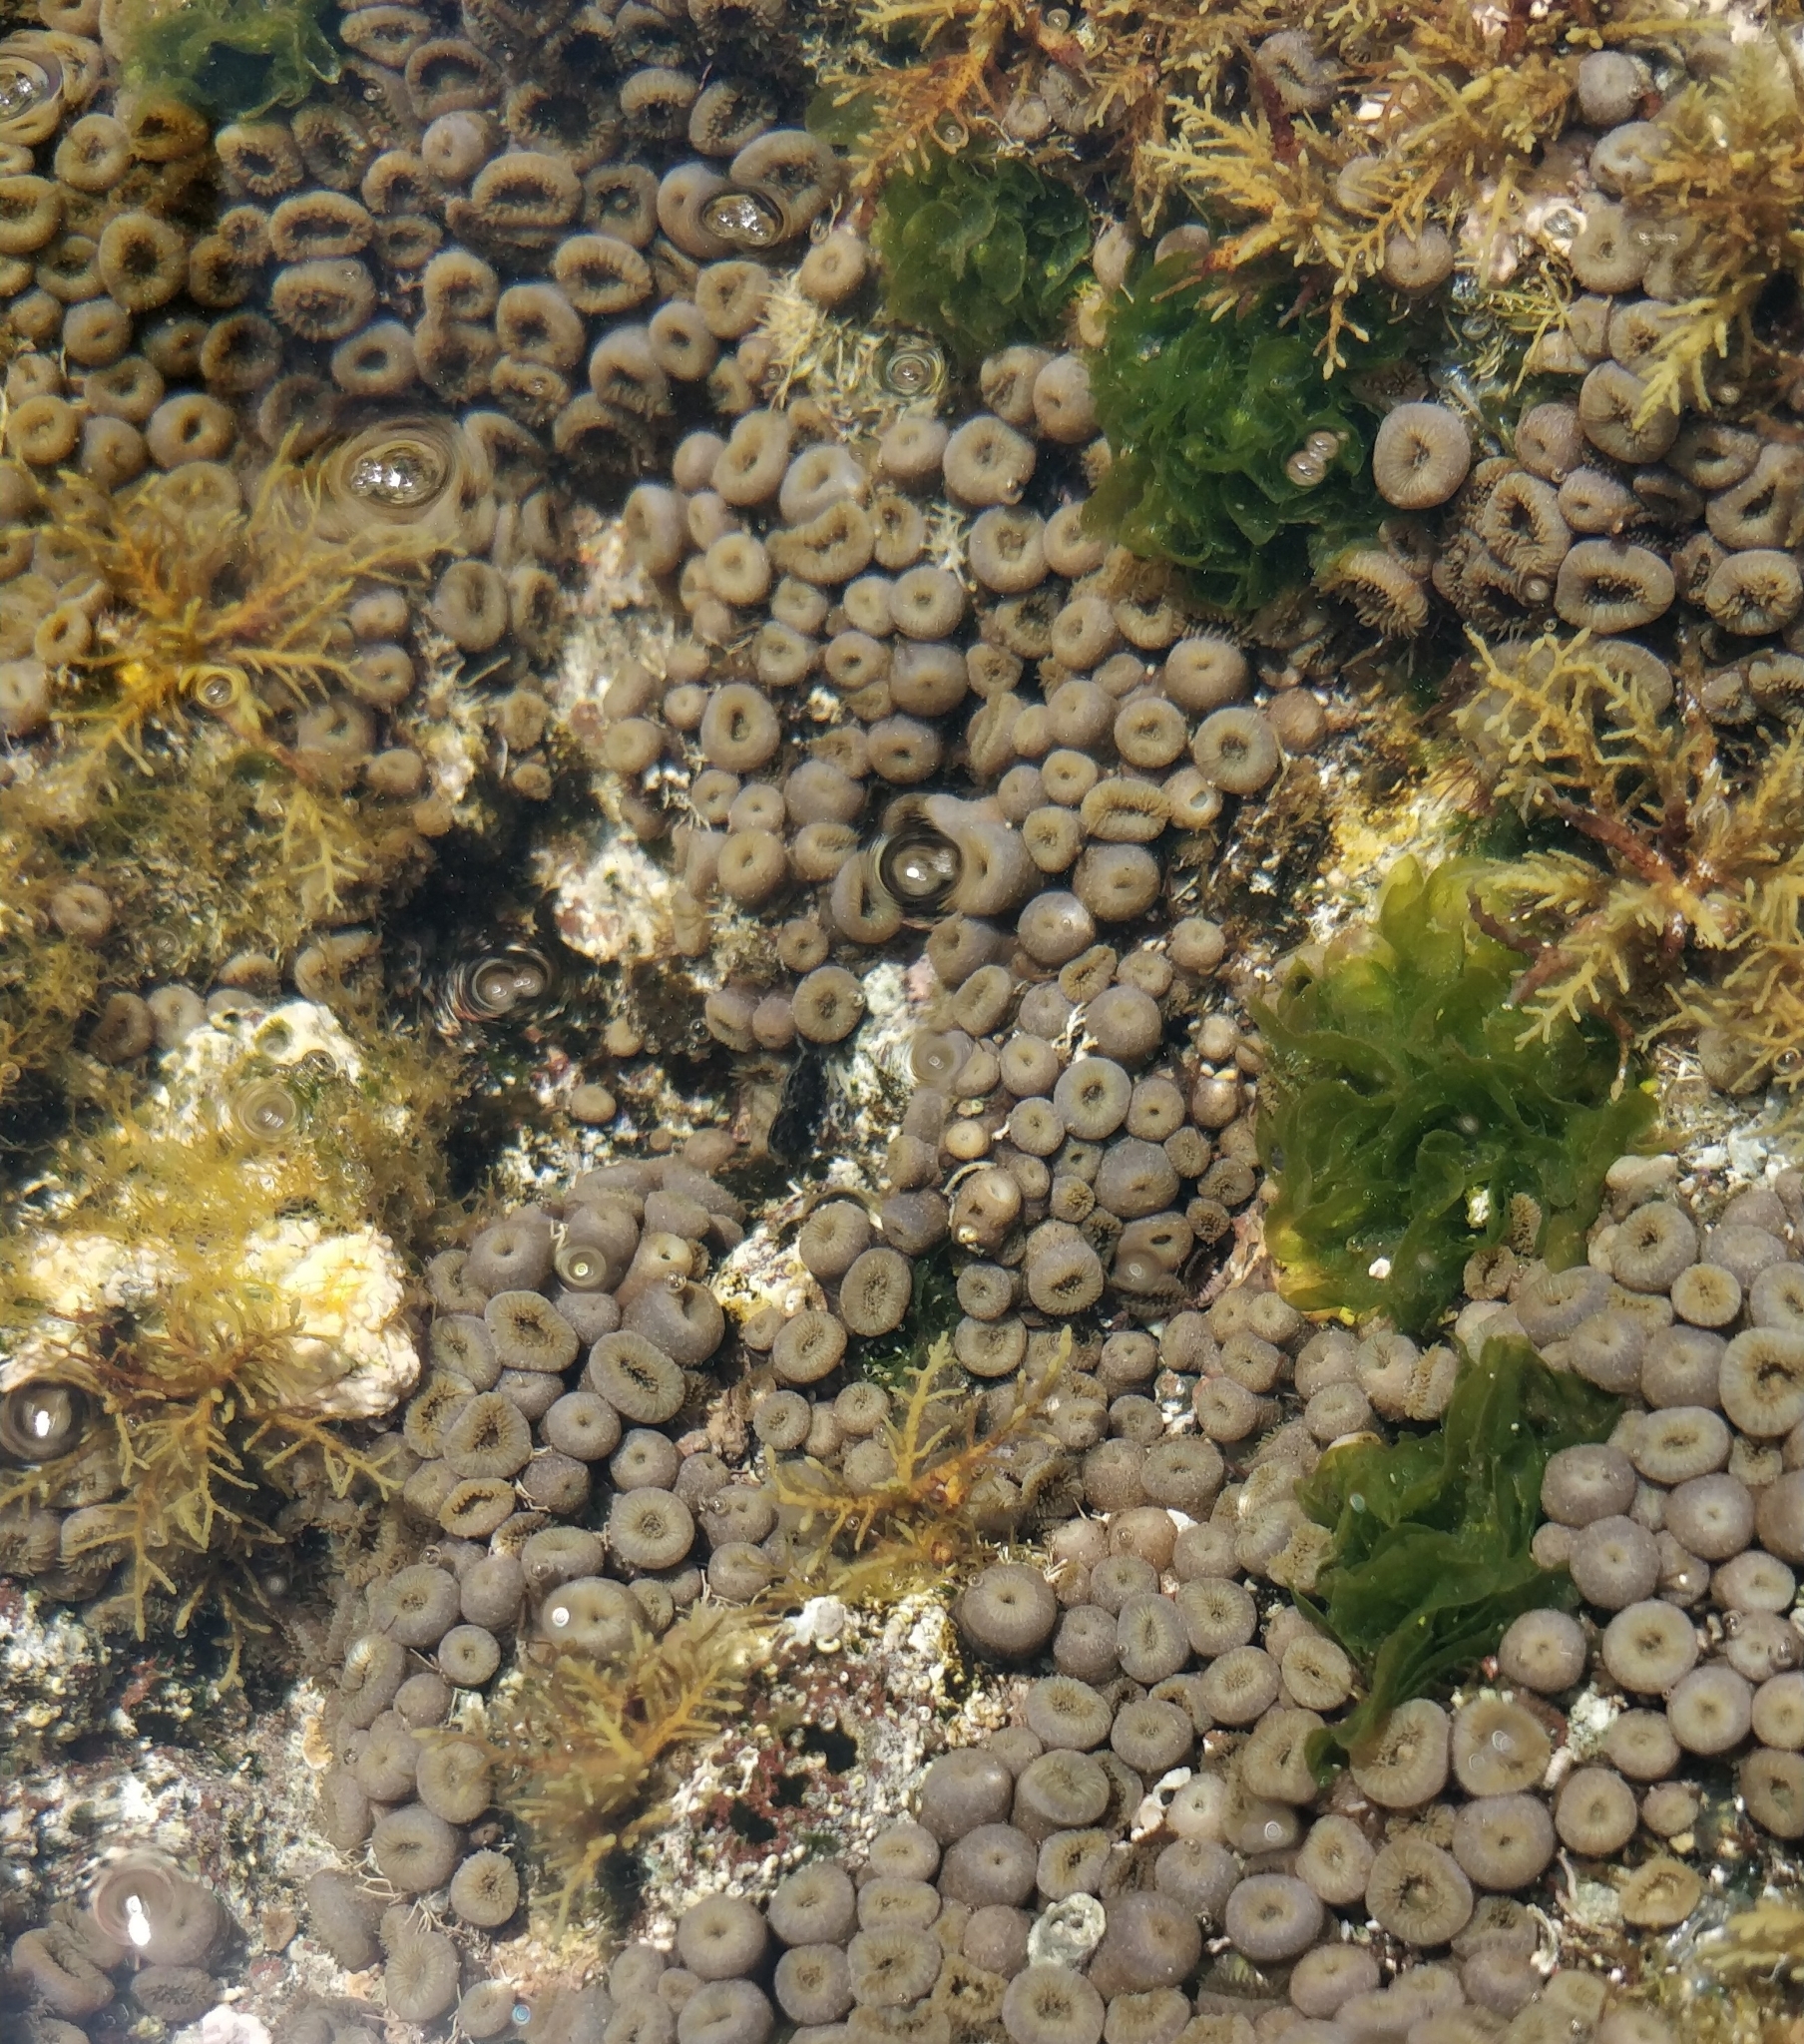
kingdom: Animalia
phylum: Cnidaria
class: Anthozoa
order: Zoantharia
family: Sphenopidae
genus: Palythoa
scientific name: Palythoa grandiflora
